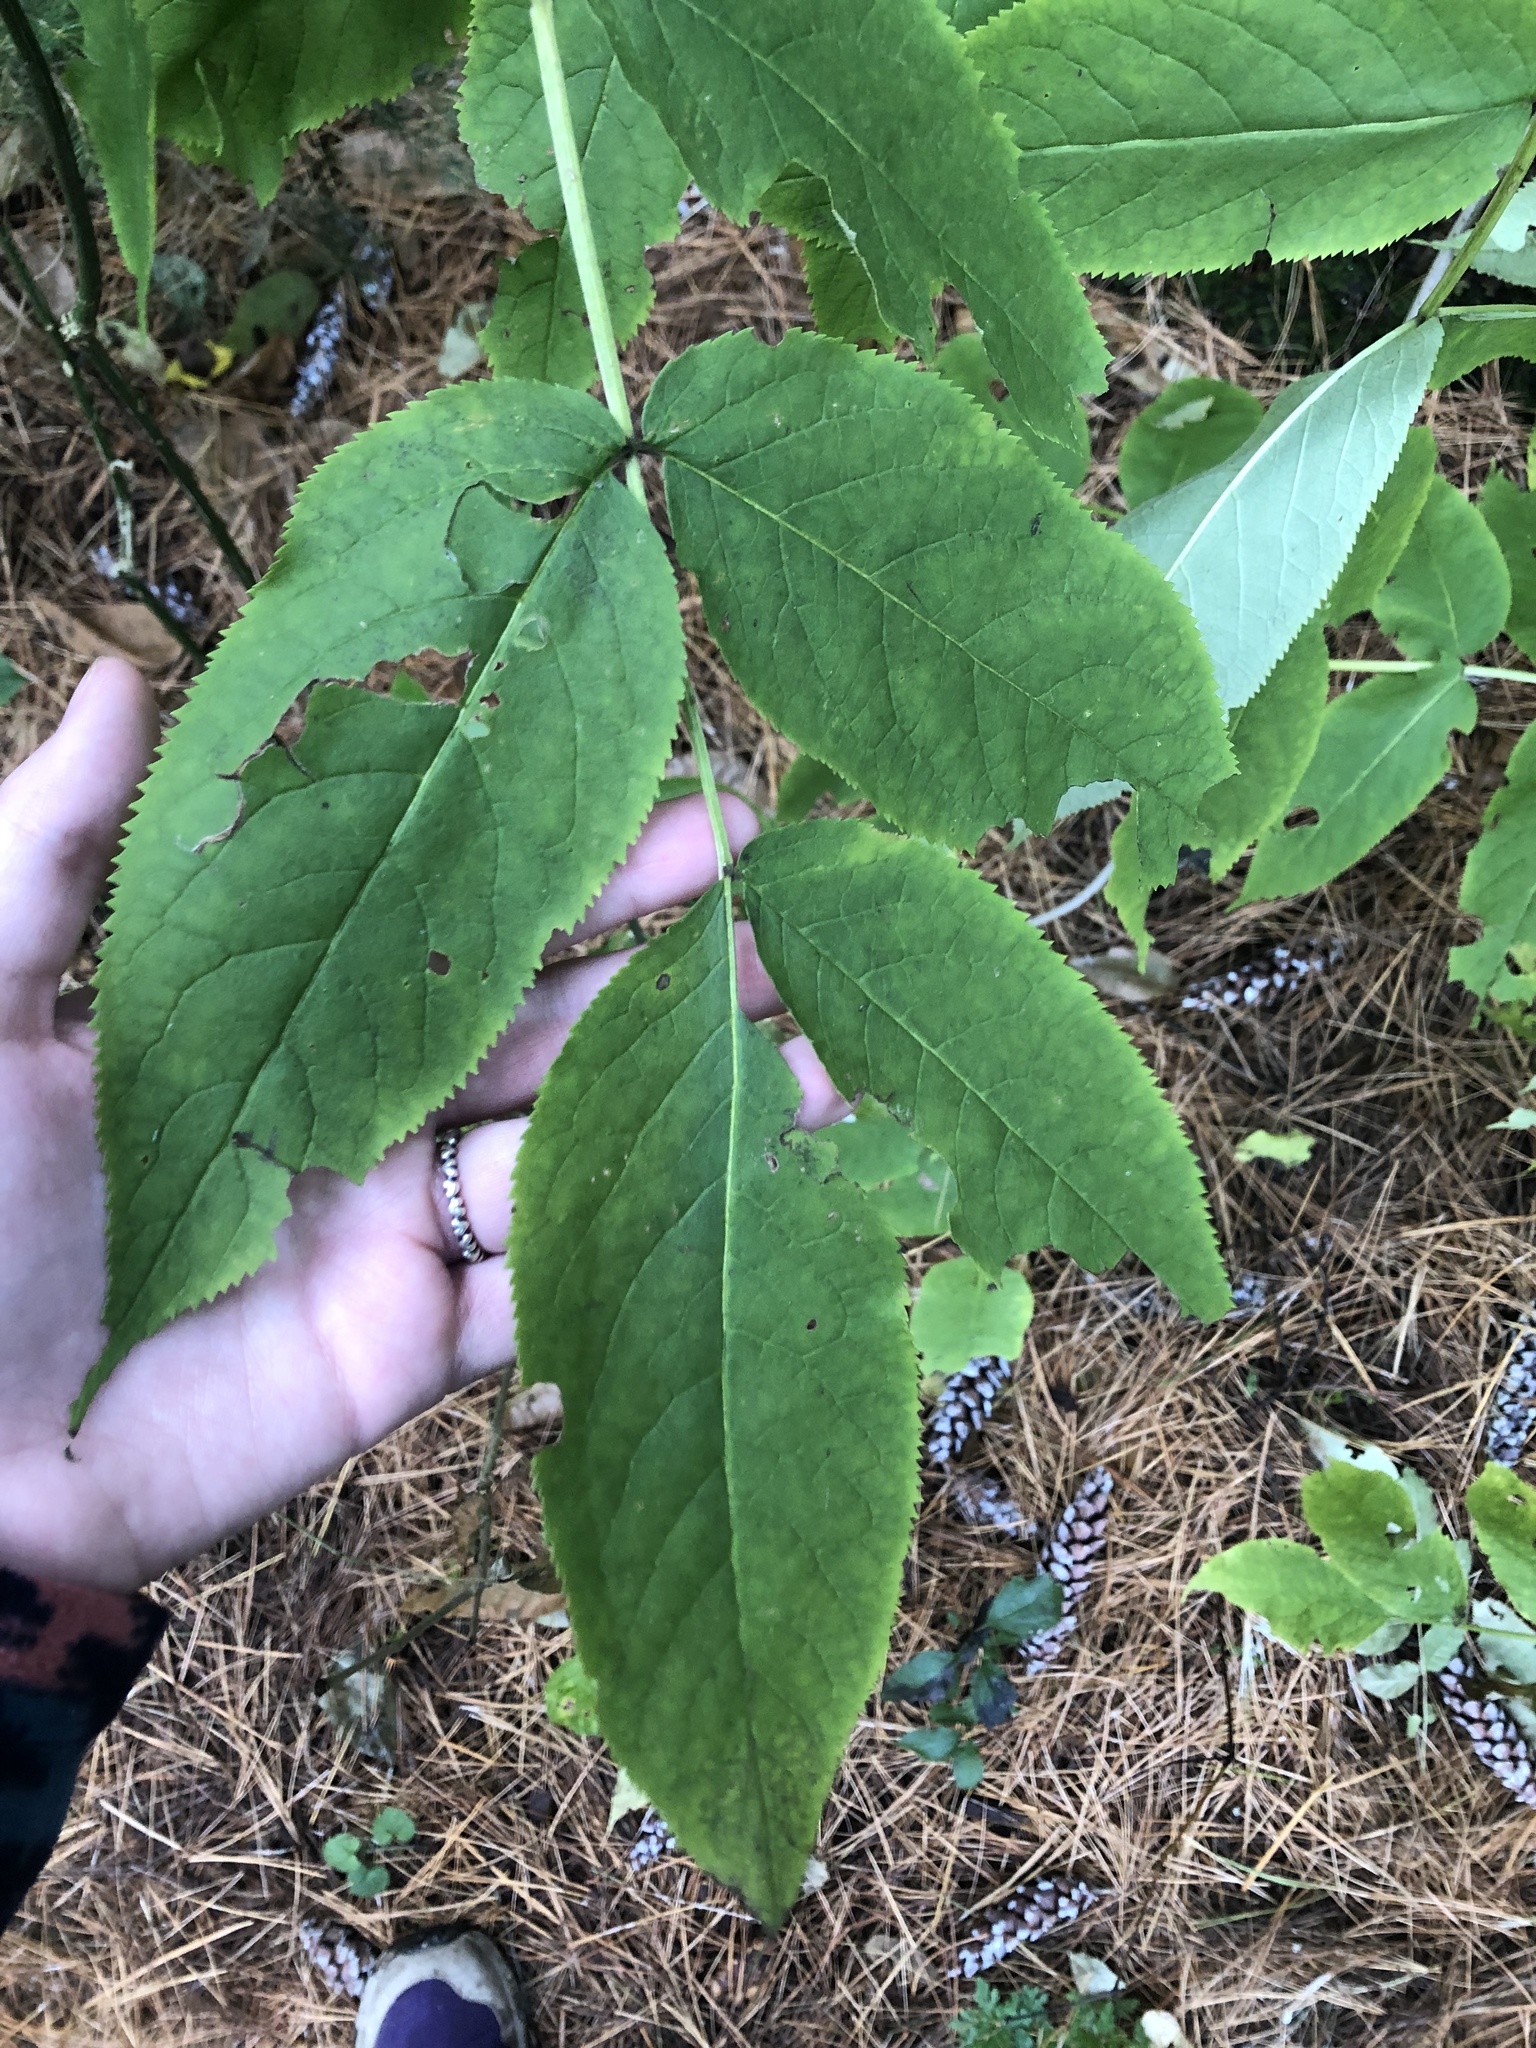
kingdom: Plantae
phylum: Tracheophyta
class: Magnoliopsida
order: Dipsacales
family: Viburnaceae
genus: Sambucus
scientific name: Sambucus racemosa
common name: Red-berried elder
